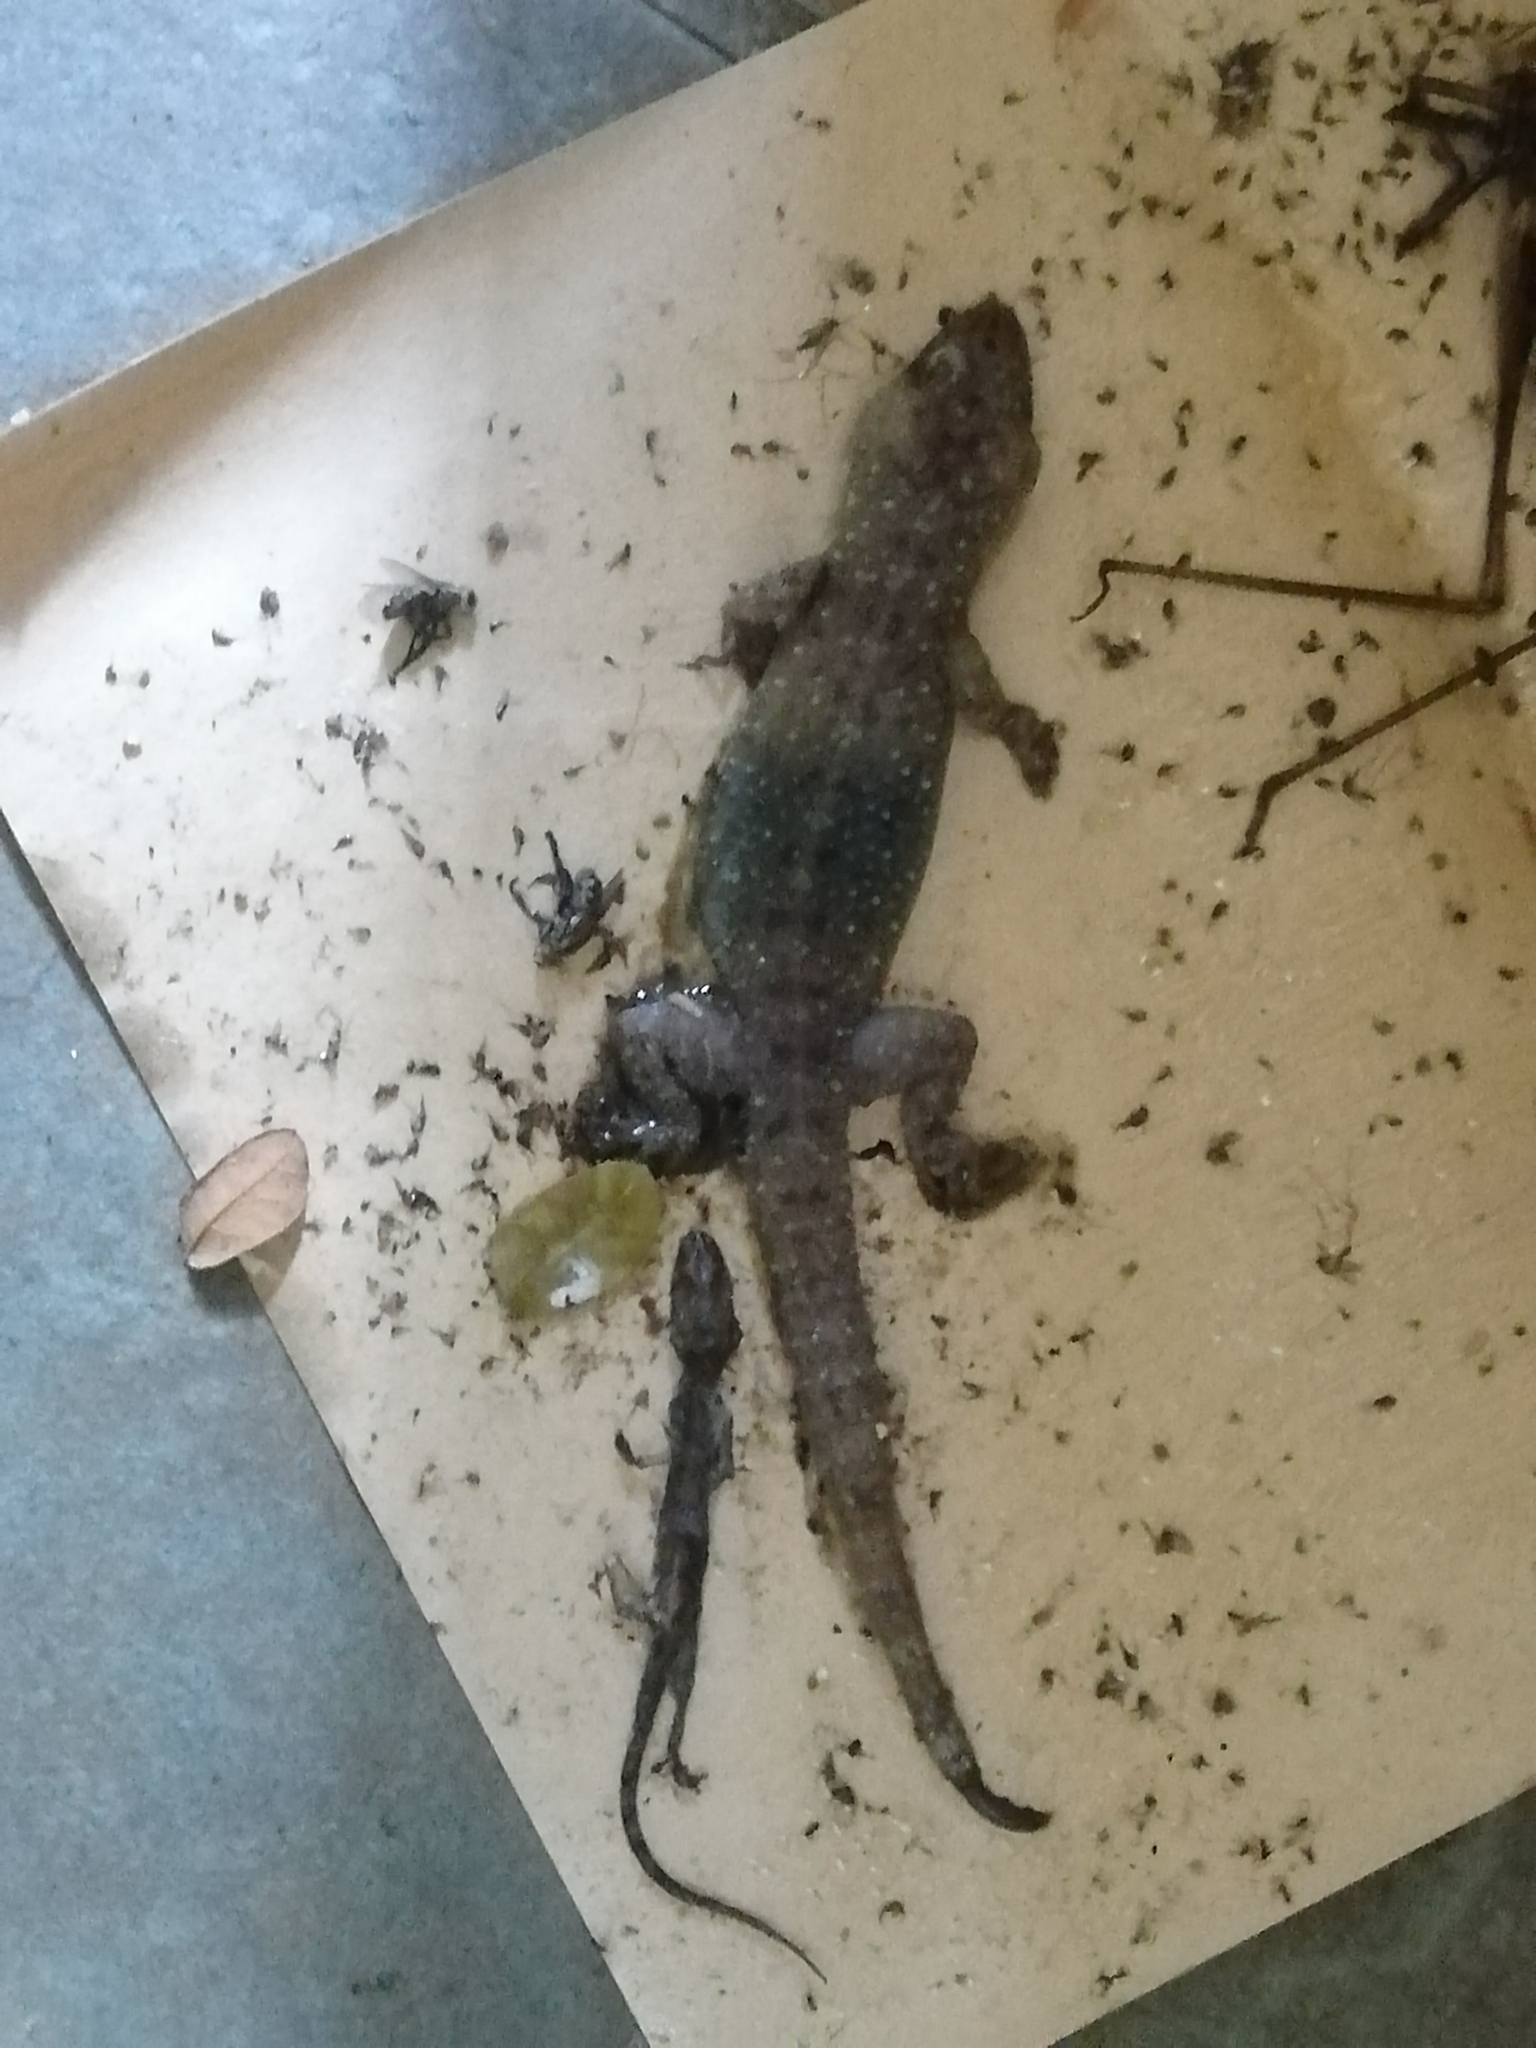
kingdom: Animalia
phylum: Chordata
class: Squamata
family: Gekkonidae
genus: Gekko
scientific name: Gekko monarchus
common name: Spotted house gecko
